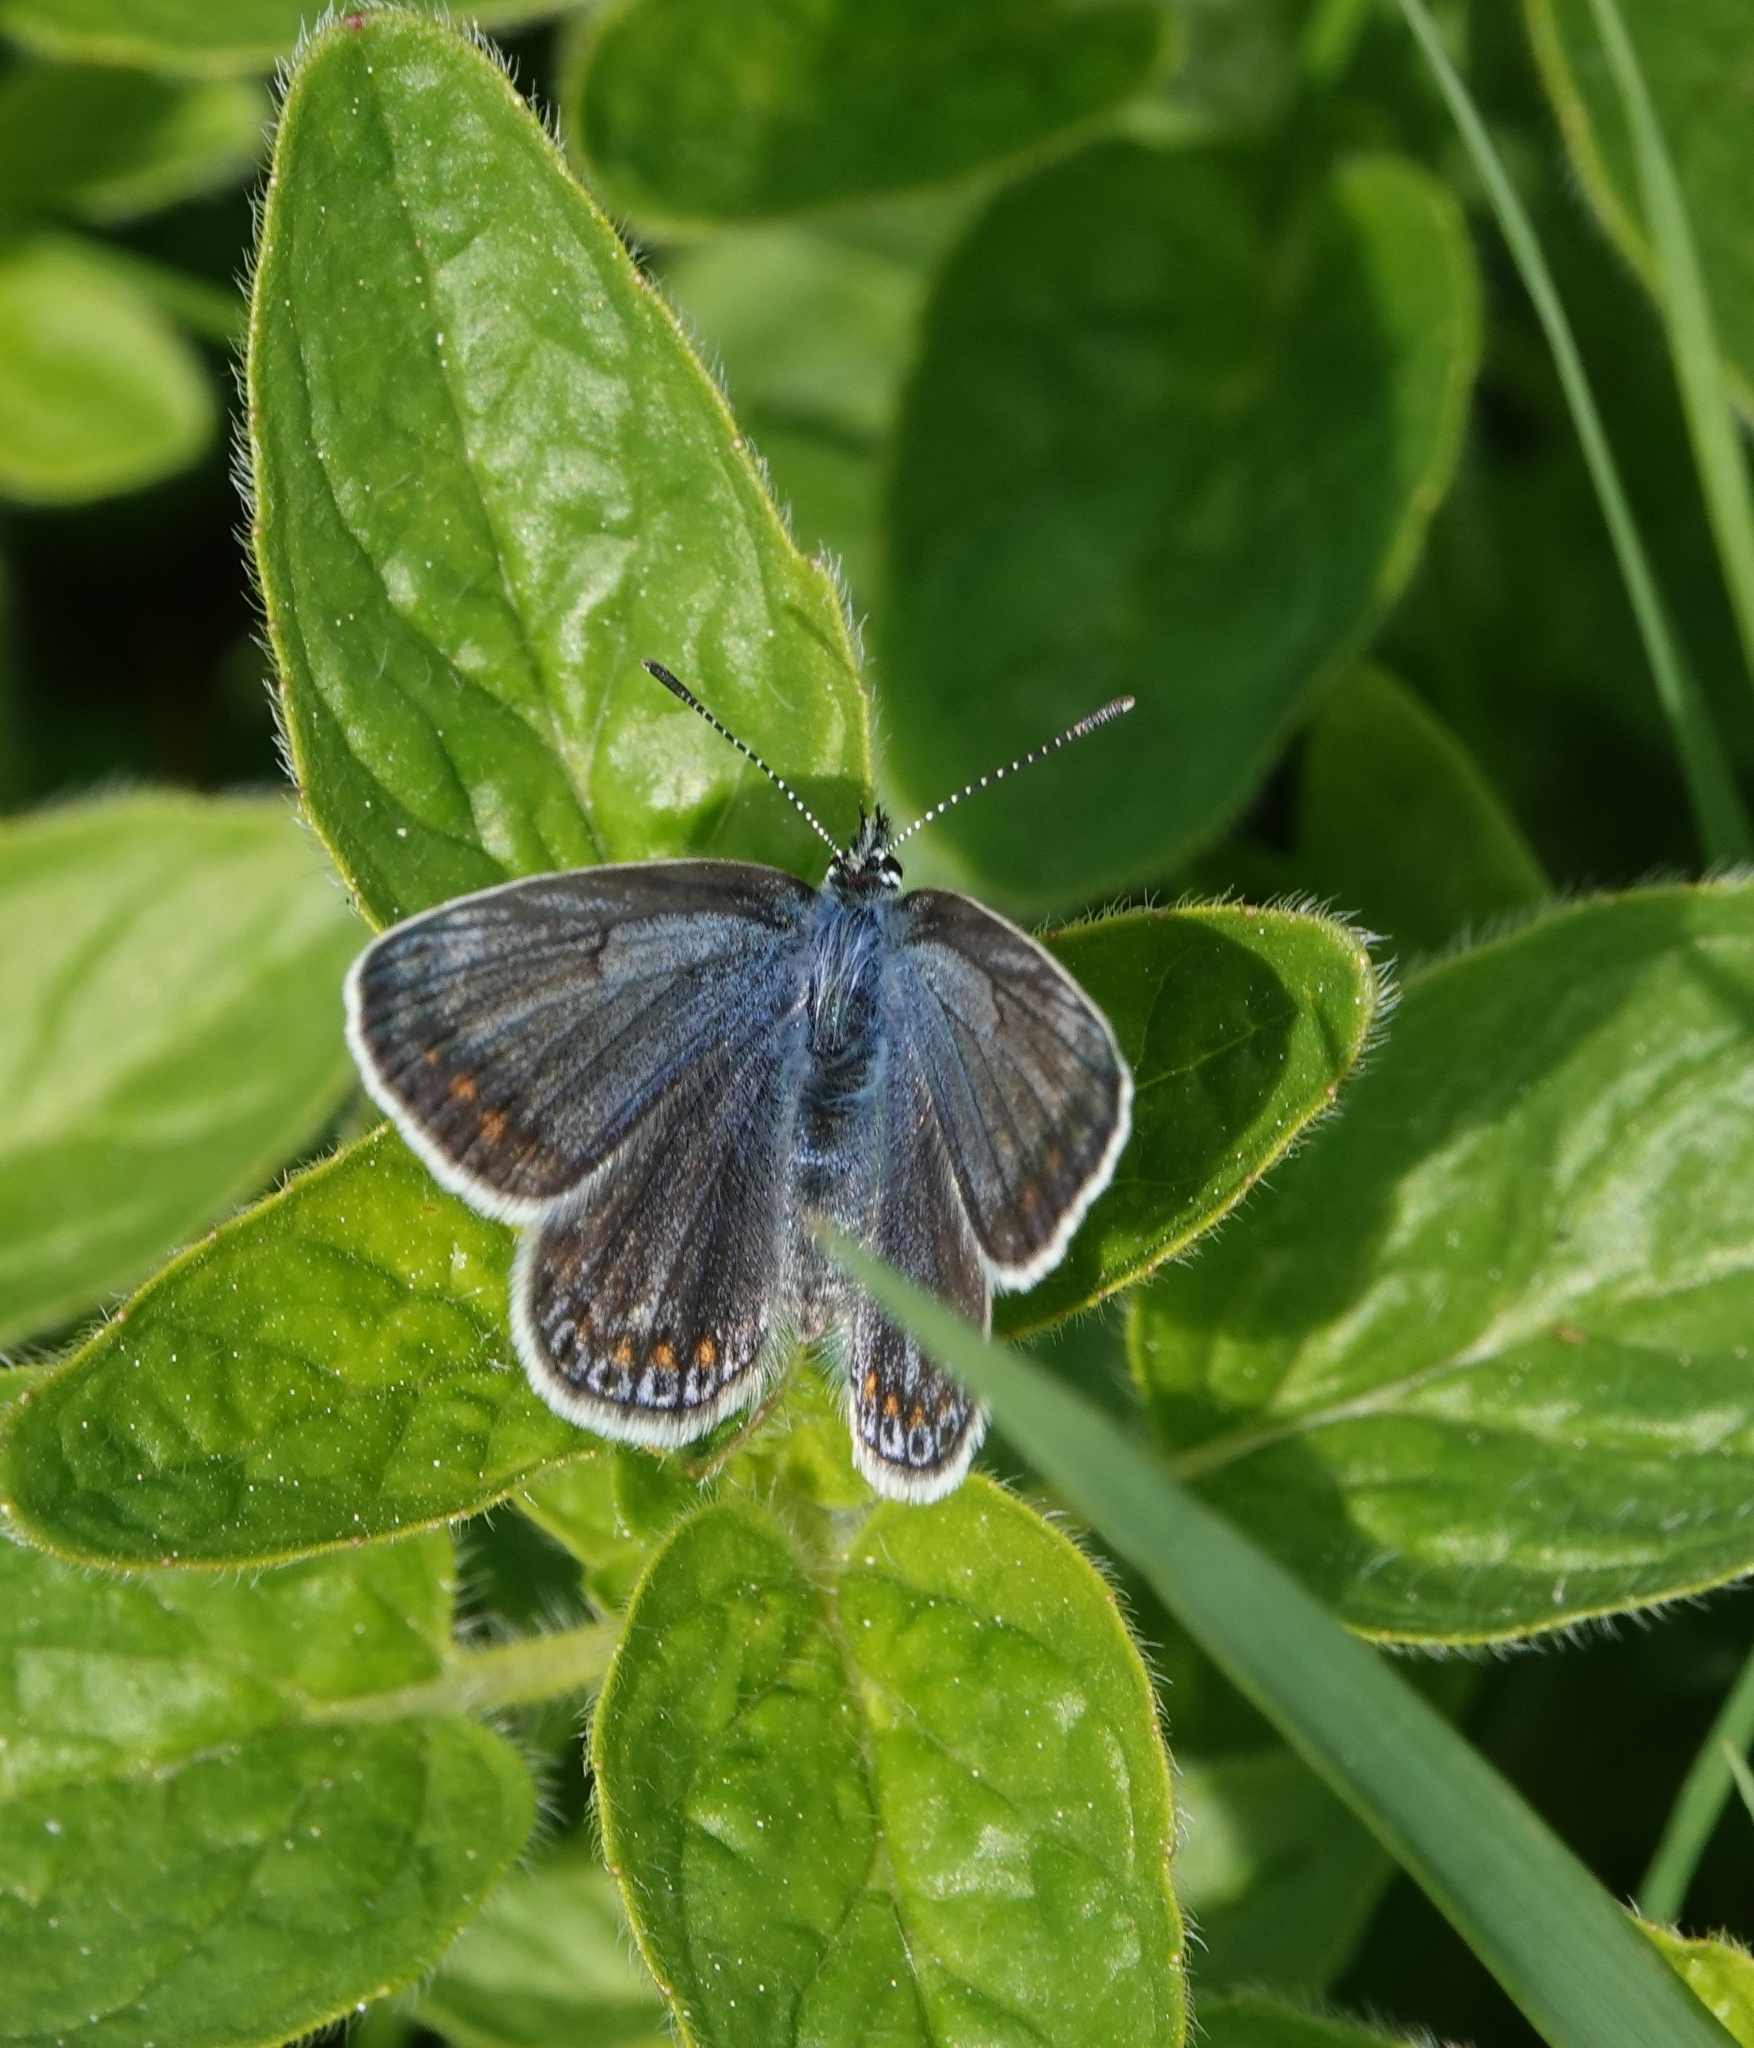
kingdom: Animalia
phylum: Arthropoda
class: Insecta
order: Lepidoptera
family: Lycaenidae
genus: Polyommatus
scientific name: Polyommatus icarus
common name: Common blue
